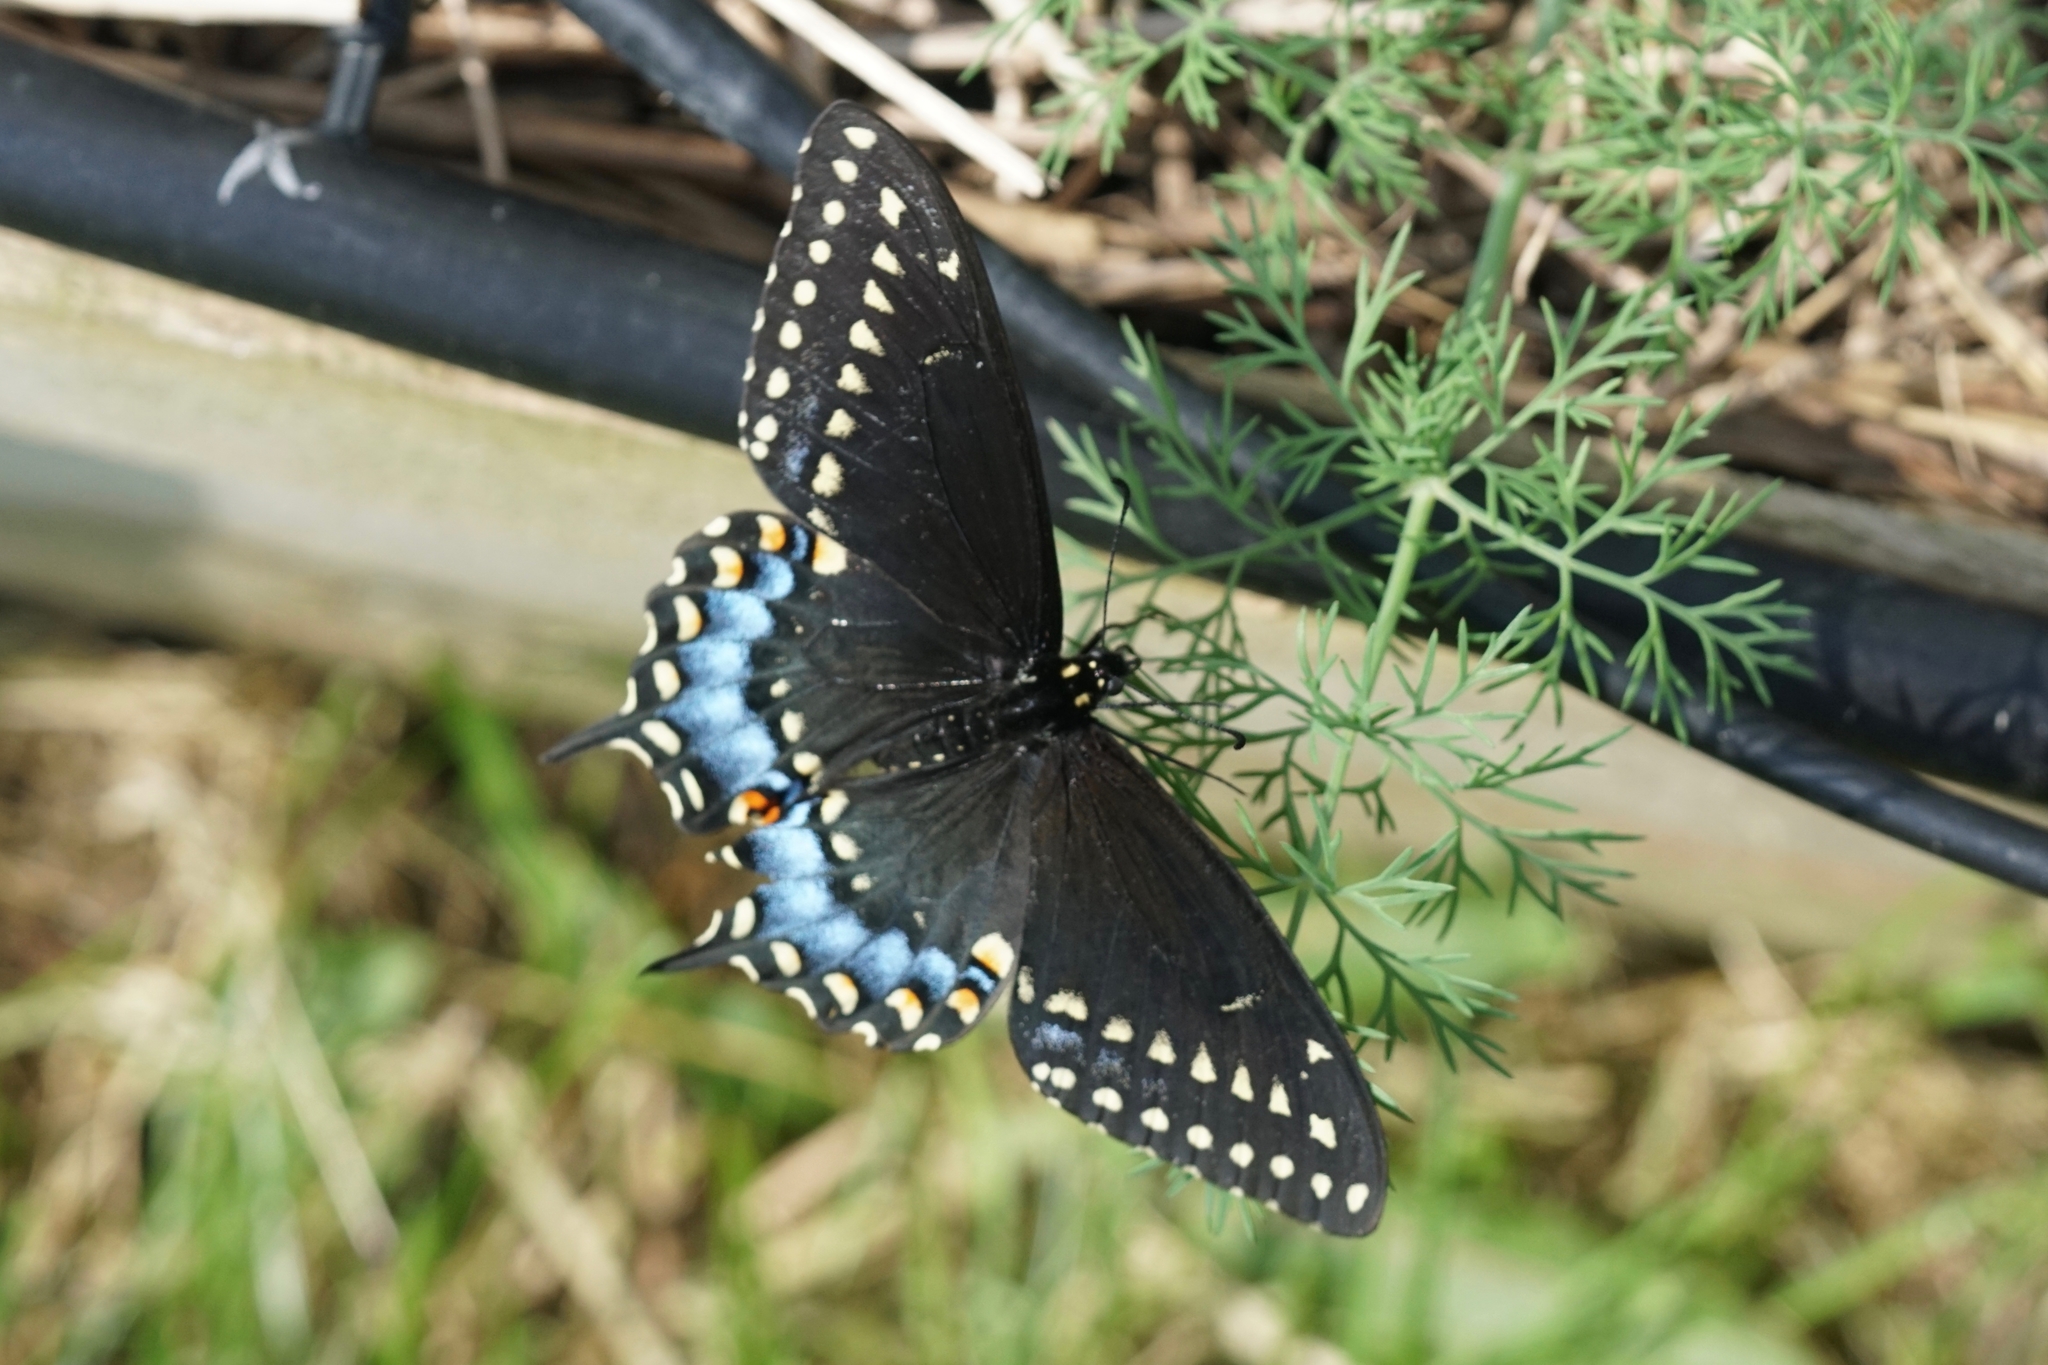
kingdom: Animalia
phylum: Arthropoda
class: Insecta
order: Lepidoptera
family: Papilionidae
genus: Papilio
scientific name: Papilio polyxenes
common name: Black swallowtail
